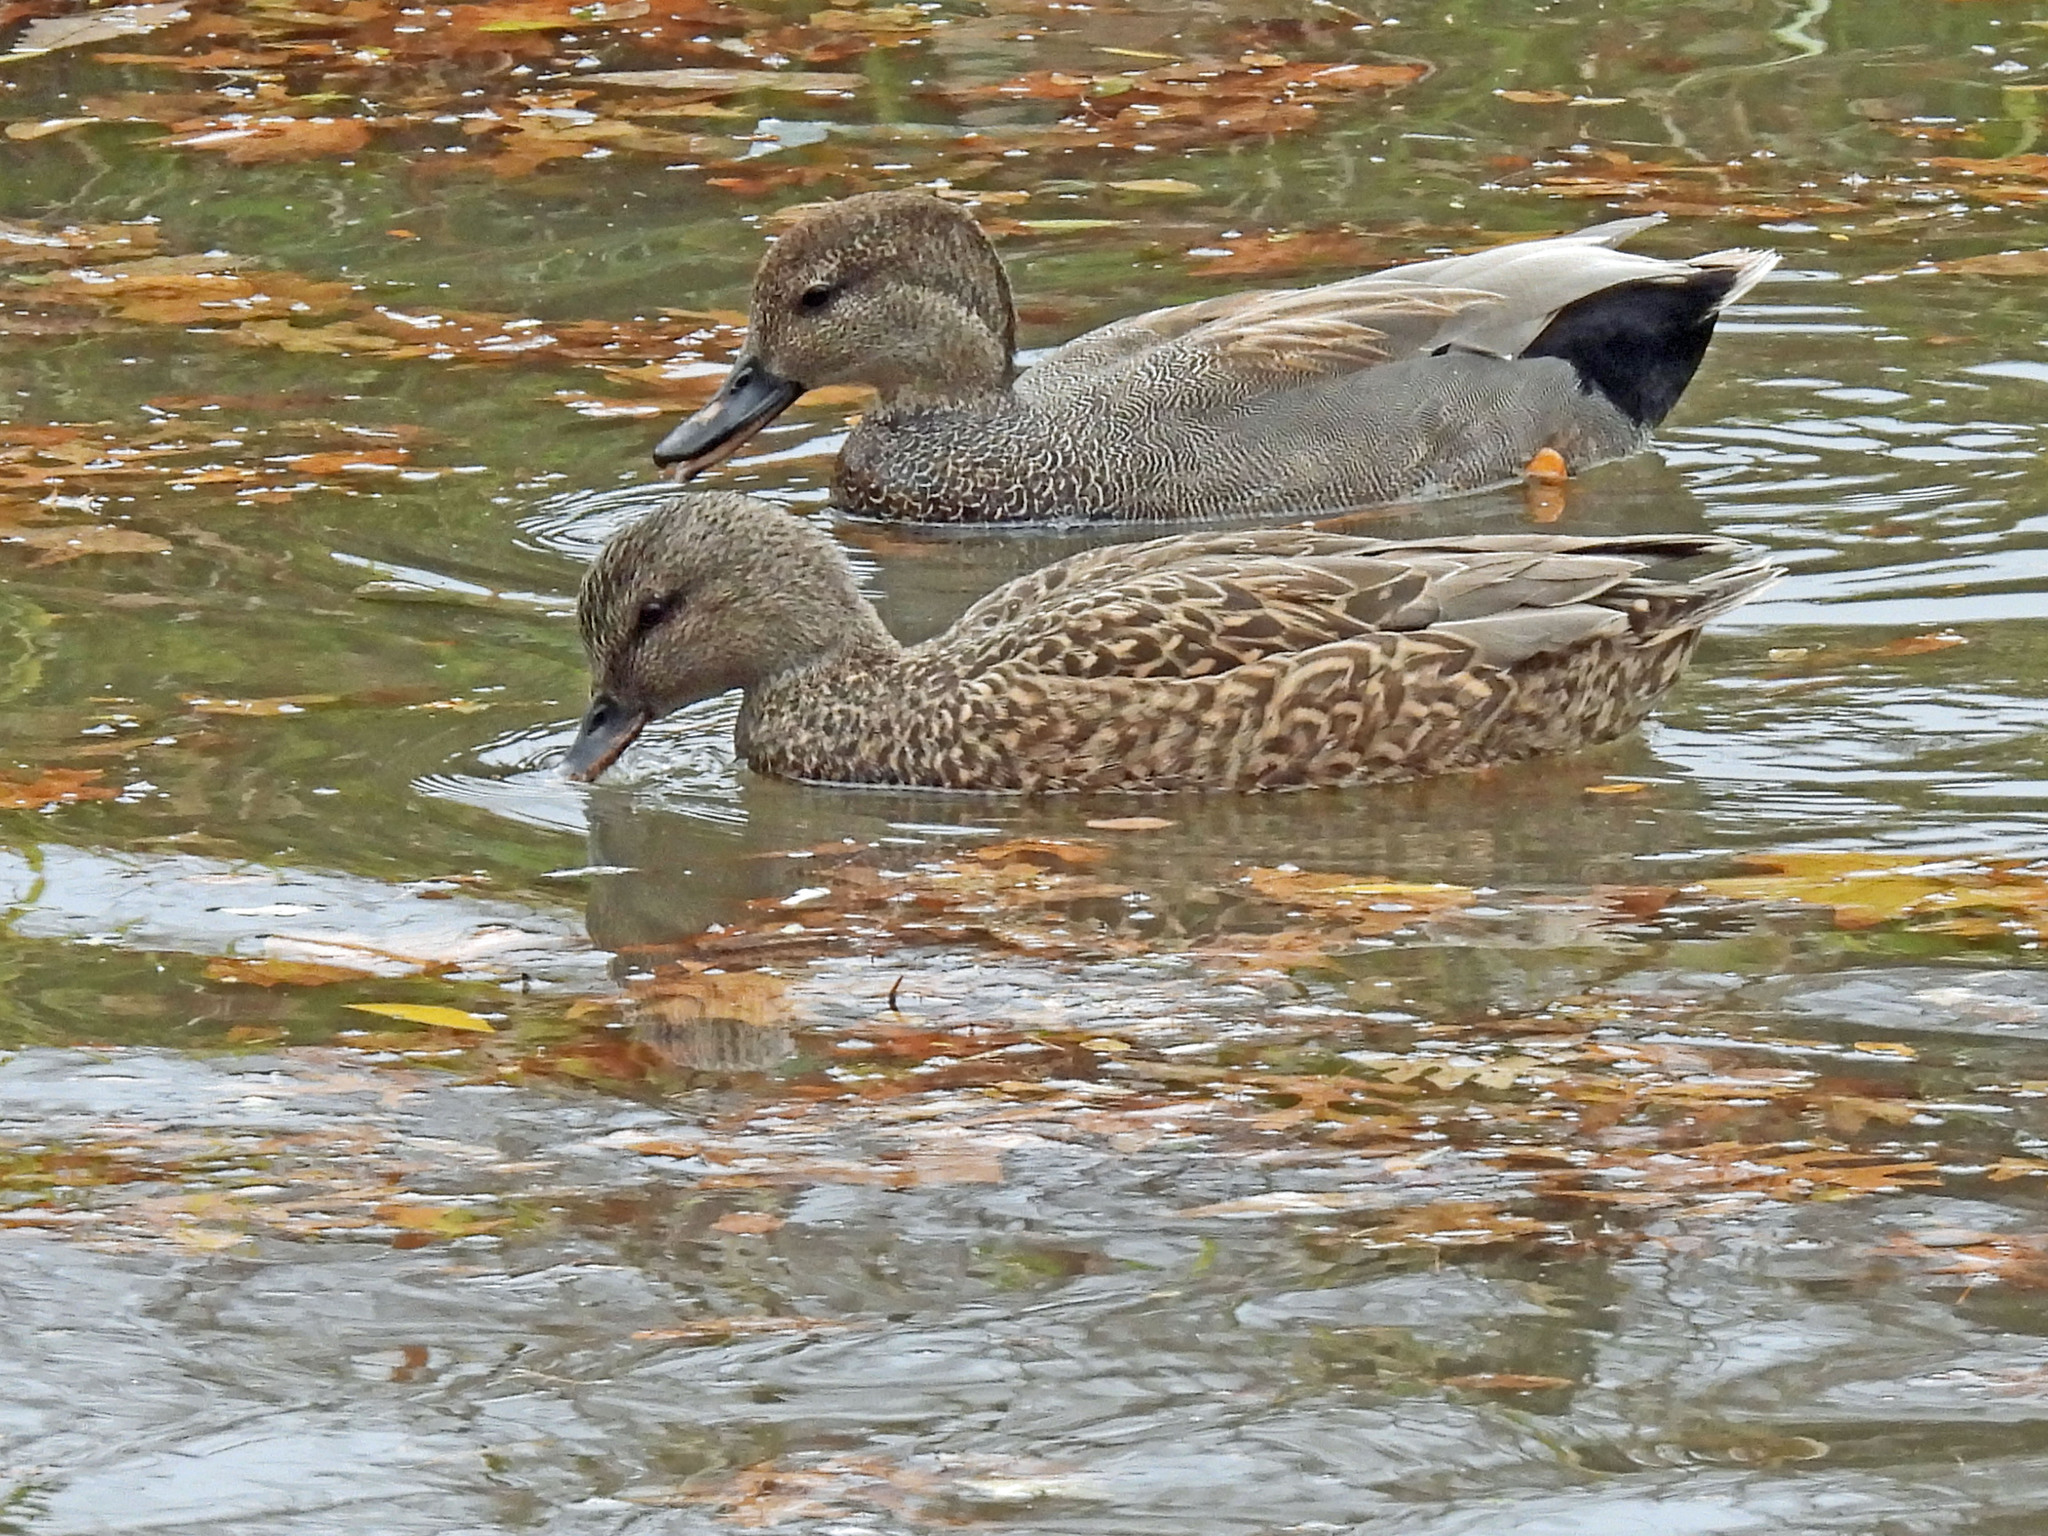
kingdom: Animalia
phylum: Chordata
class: Aves
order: Anseriformes
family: Anatidae
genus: Mareca
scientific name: Mareca strepera
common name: Gadwall
